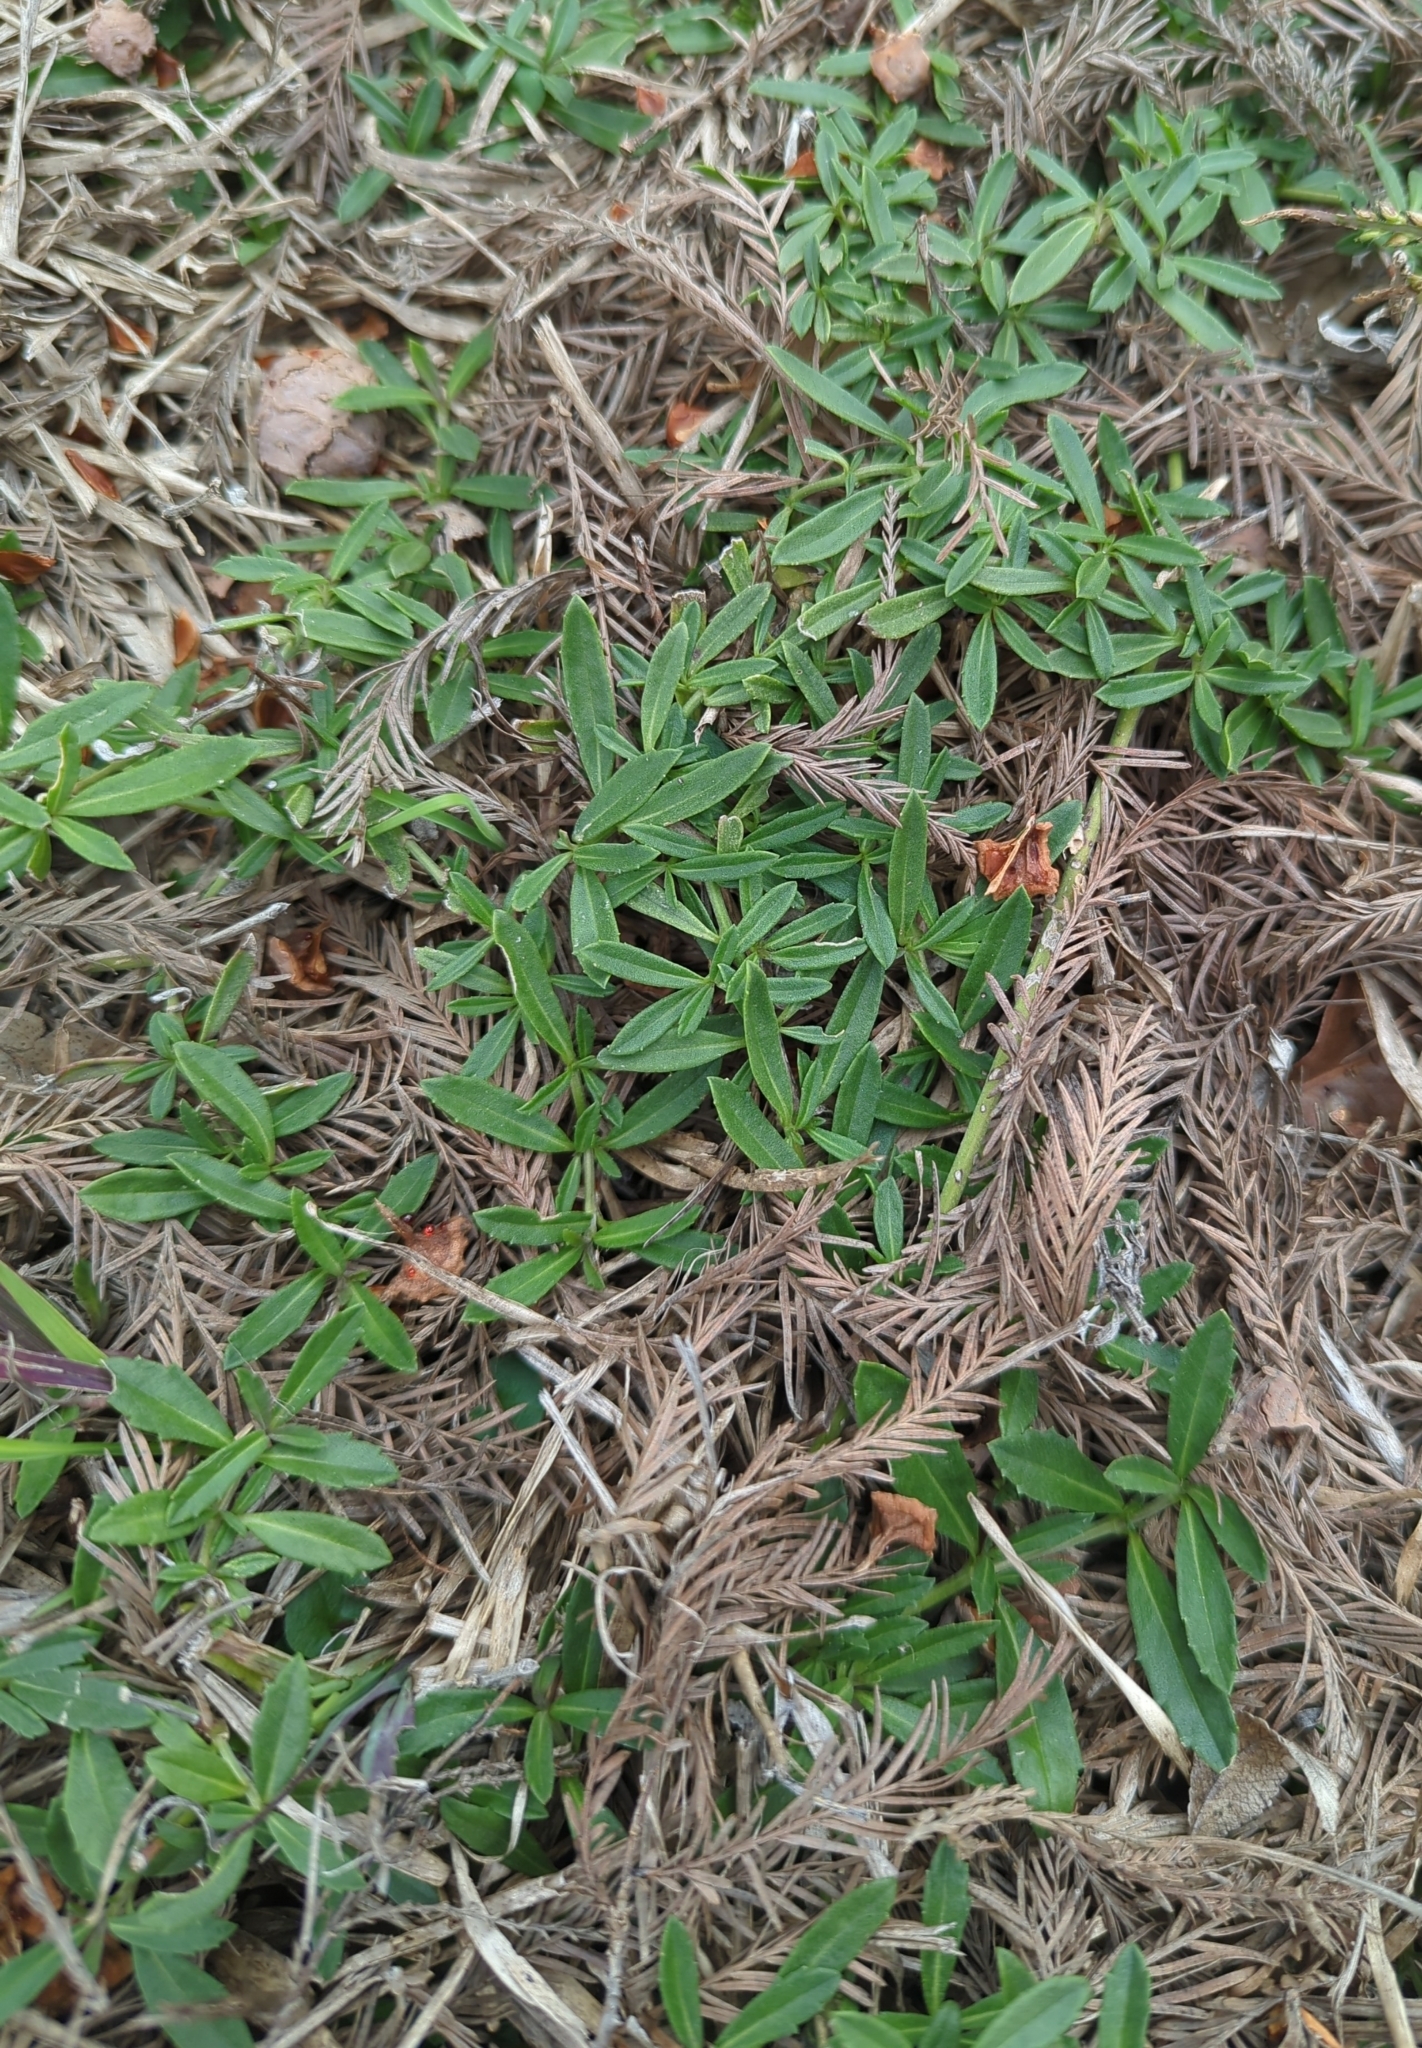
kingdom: Plantae
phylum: Tracheophyta
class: Magnoliopsida
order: Lamiales
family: Verbenaceae
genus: Phyla
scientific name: Phyla nodiflora
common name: Frogfruit
